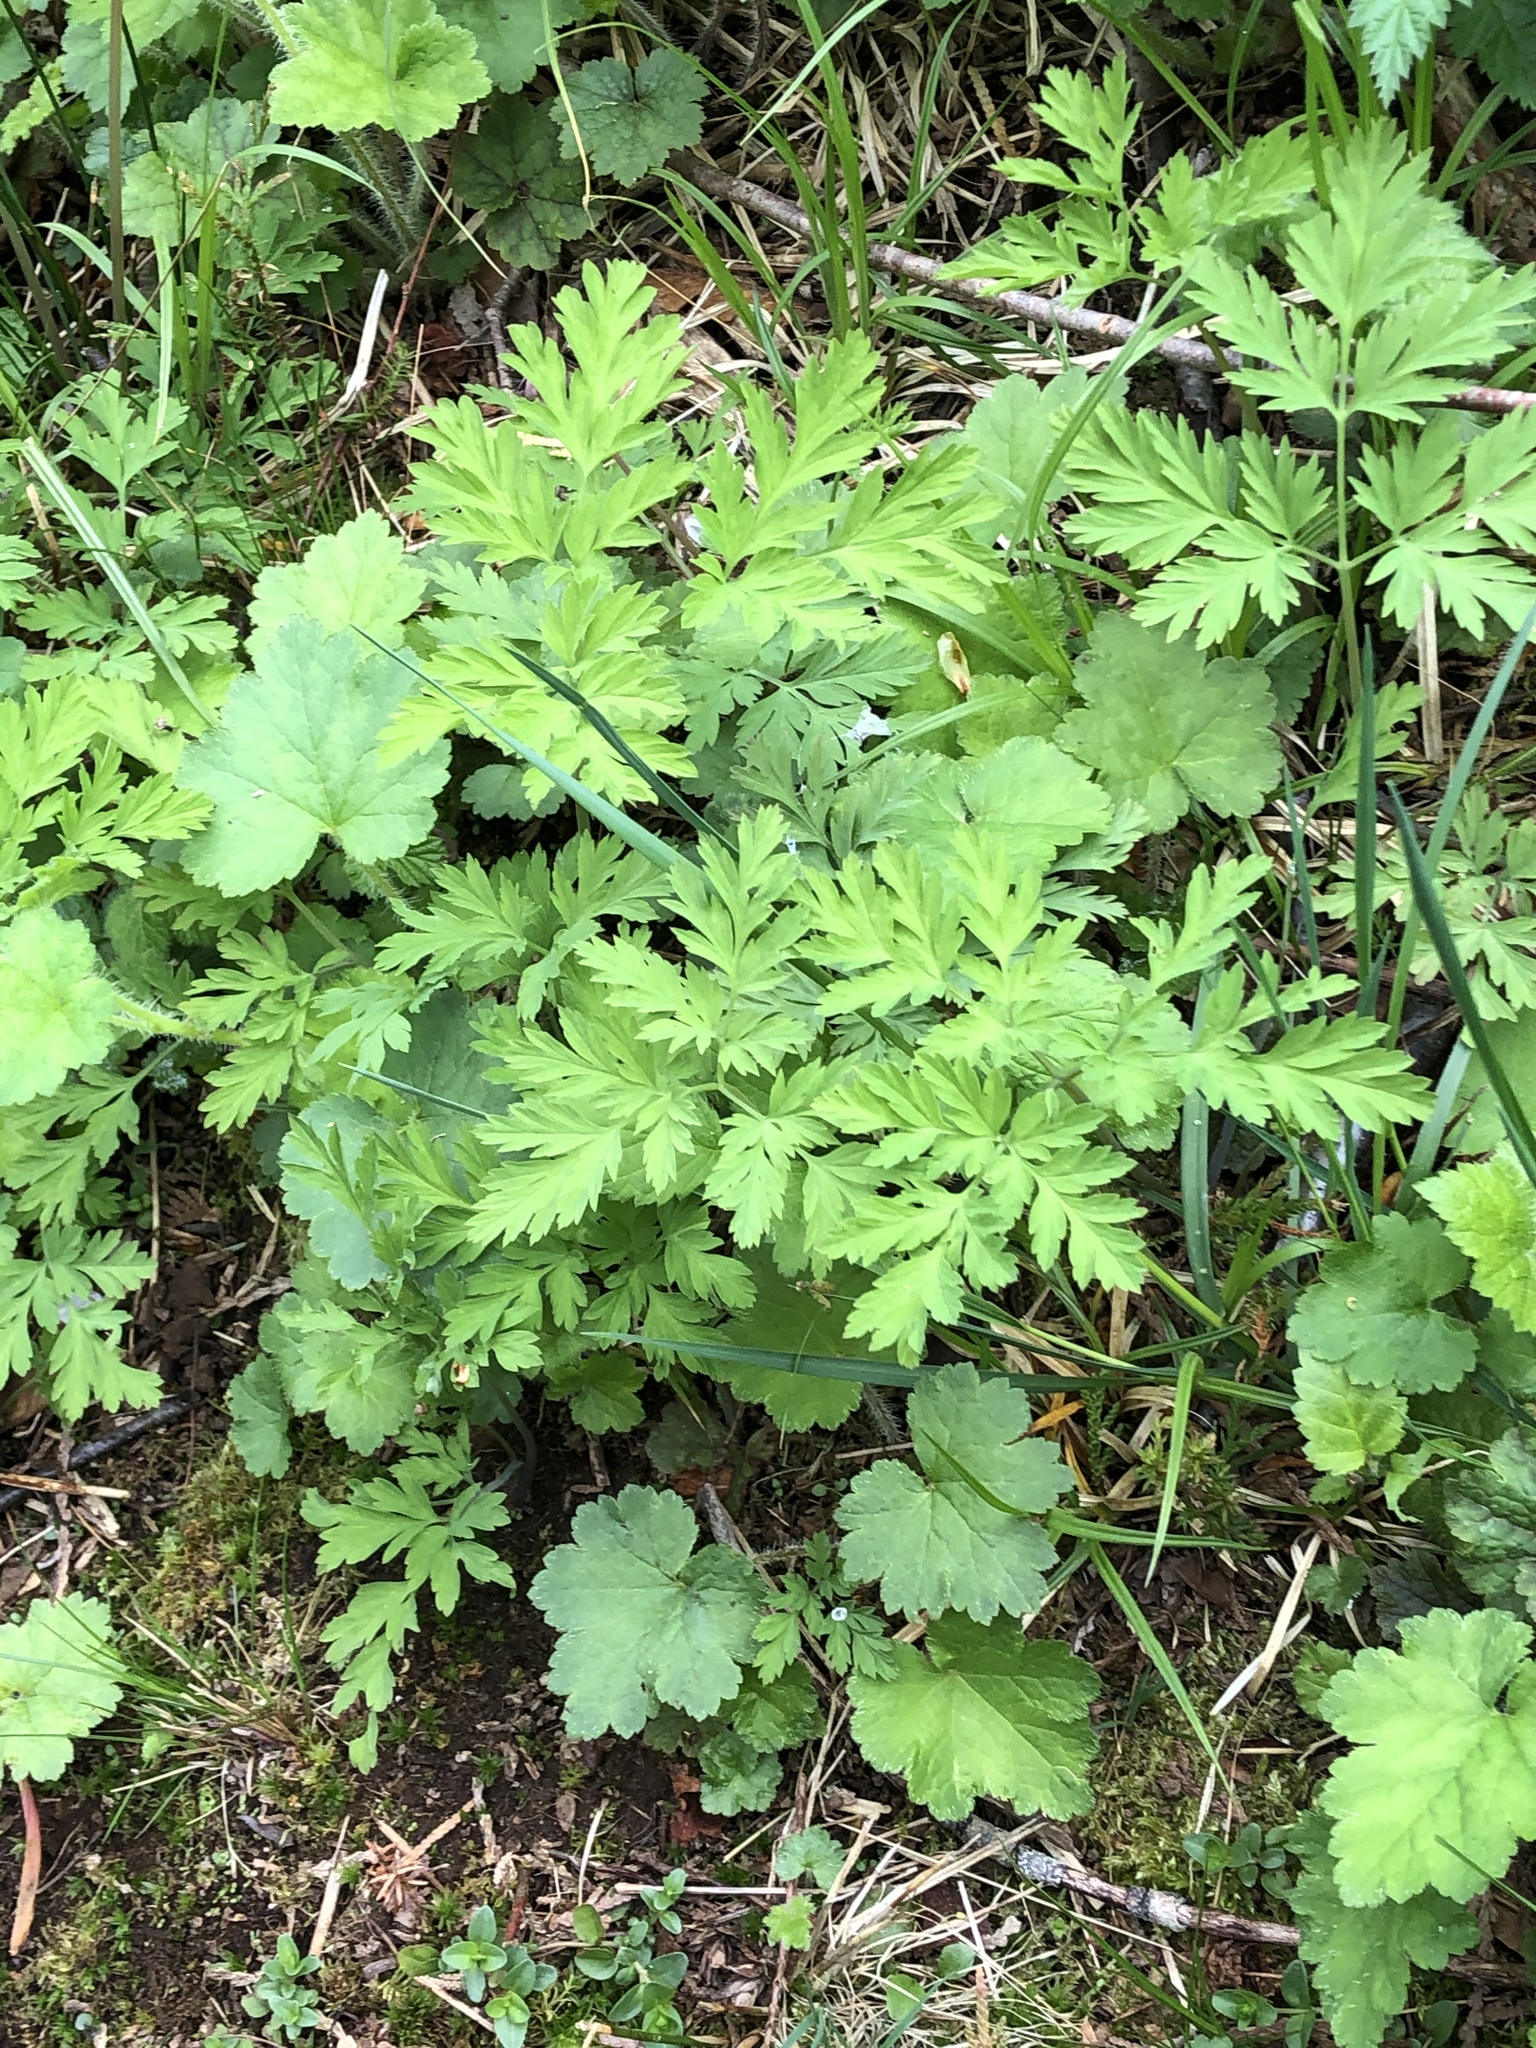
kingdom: Plantae
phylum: Tracheophyta
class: Magnoliopsida
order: Ranunculales
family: Papaveraceae
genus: Dicentra
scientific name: Dicentra formosa
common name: Bleeding-heart
